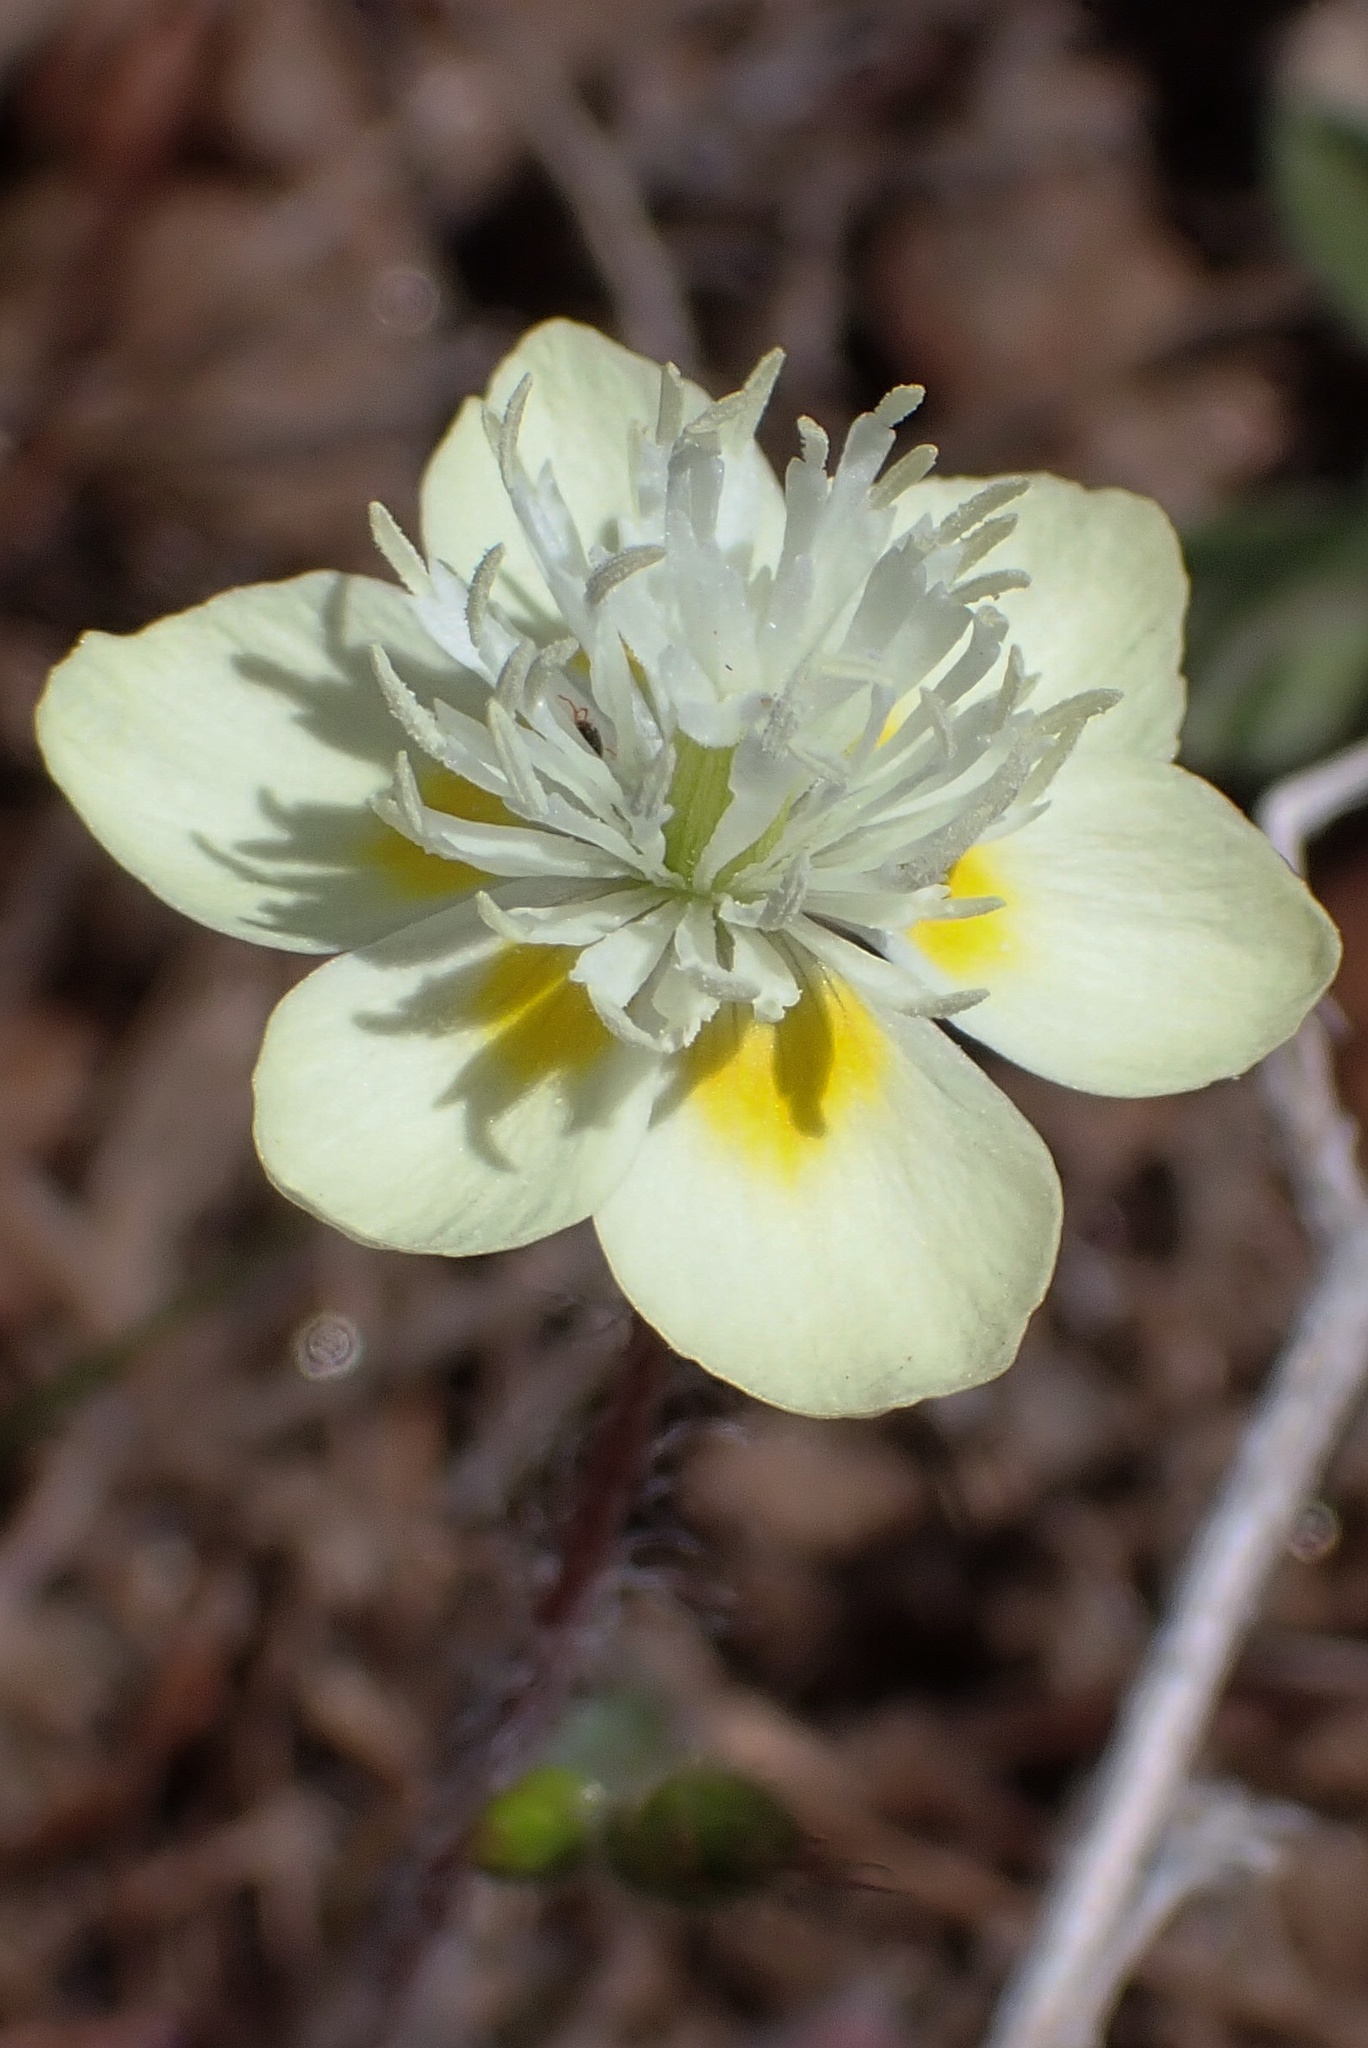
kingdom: Plantae
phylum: Tracheophyta
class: Magnoliopsida
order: Ranunculales
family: Papaveraceae
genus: Platystemon
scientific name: Platystemon californicus
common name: Cream-cups
